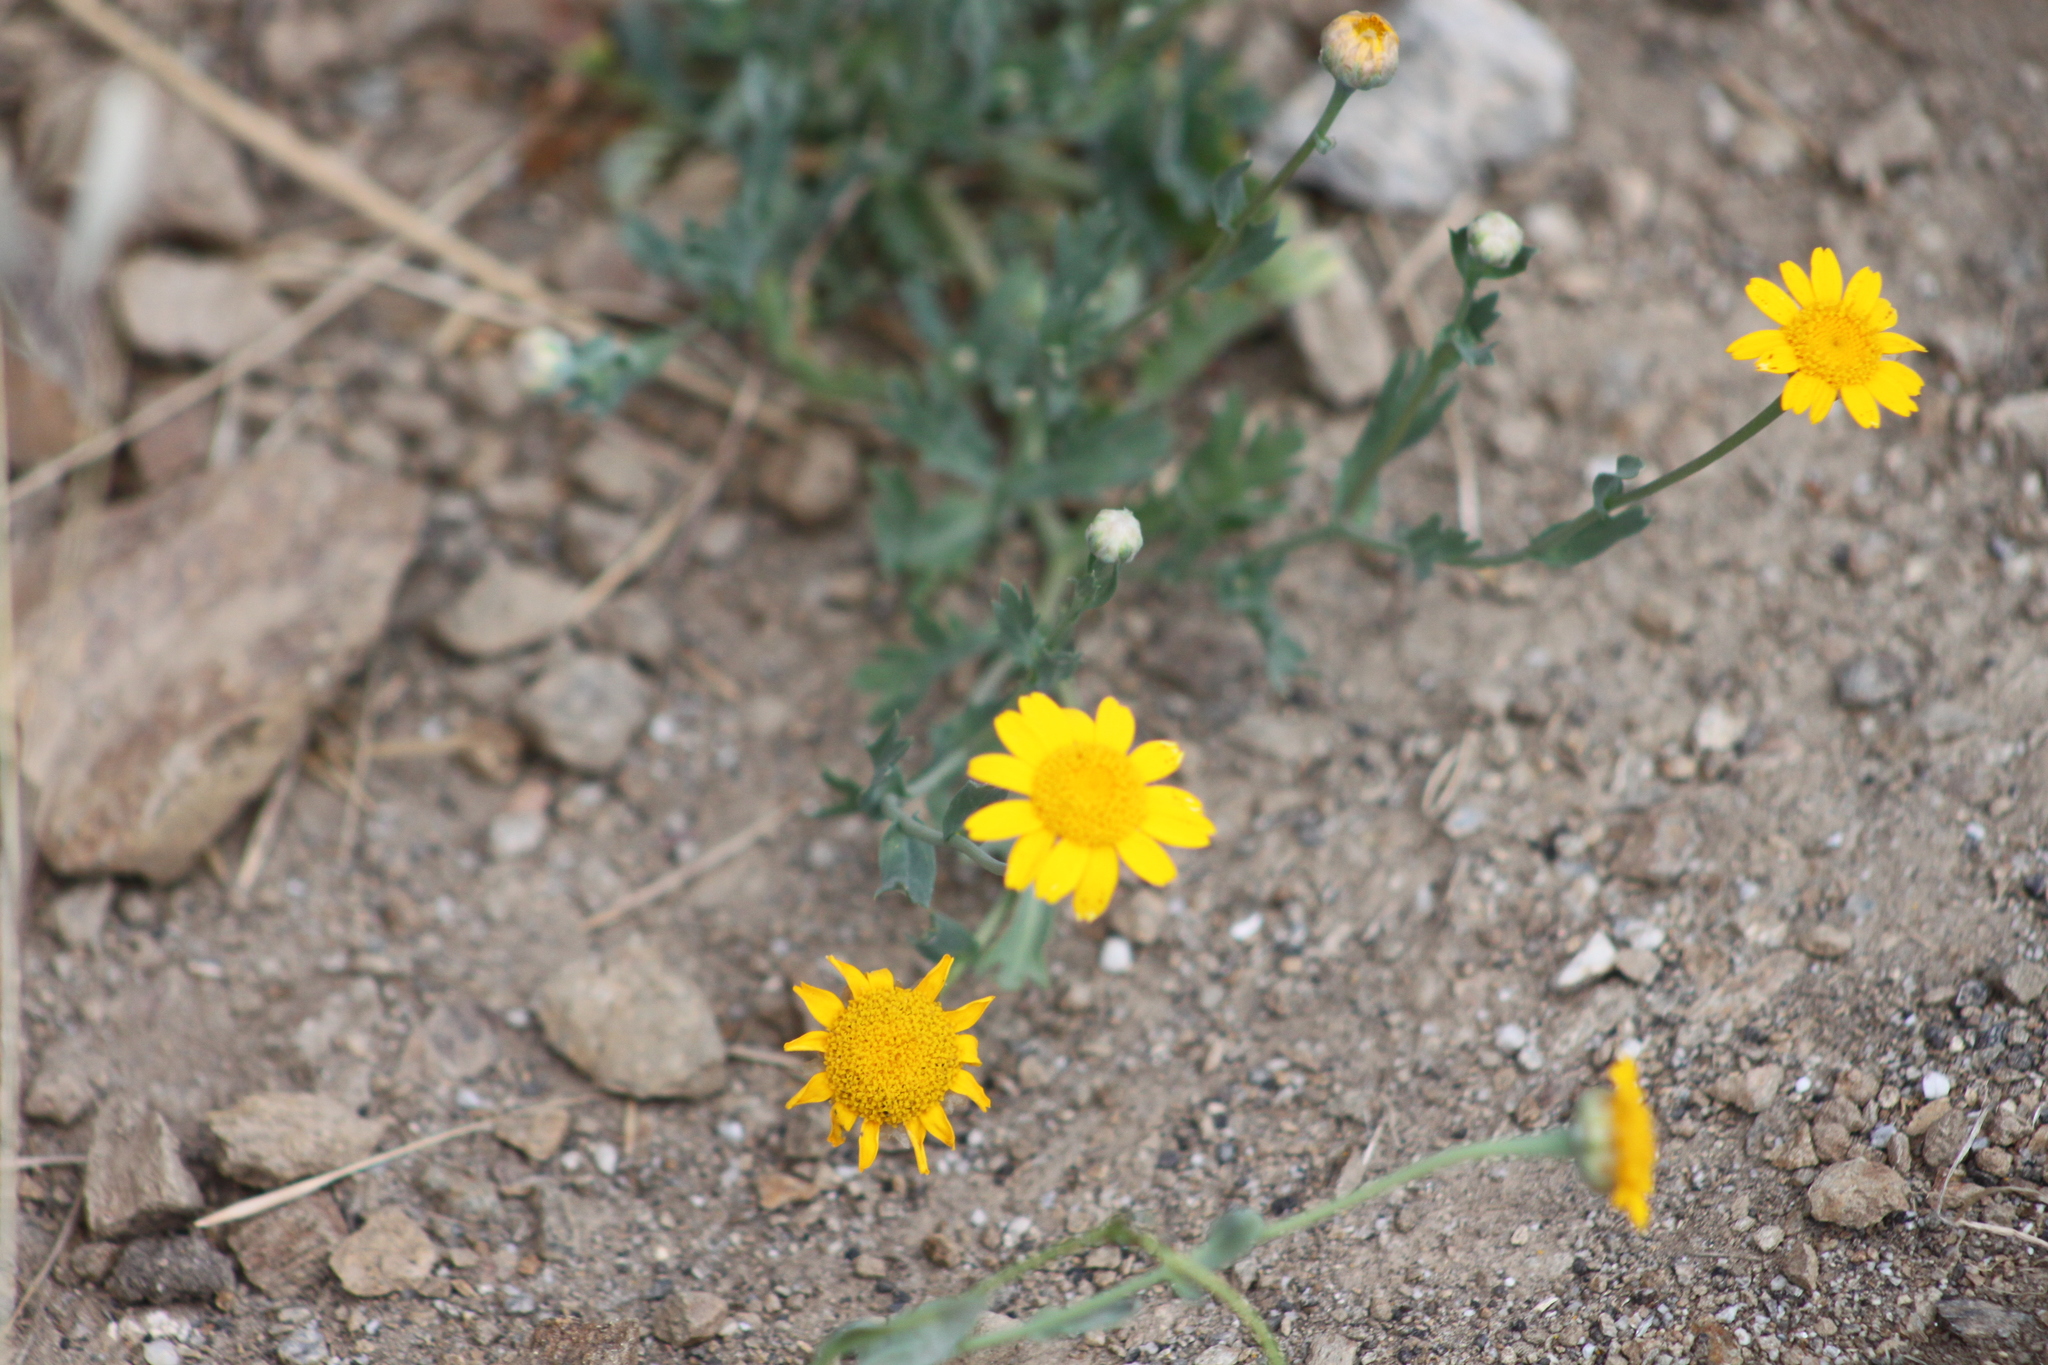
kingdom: Plantae
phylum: Tracheophyta
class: Magnoliopsida
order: Asterales
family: Asteraceae
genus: Glebionis
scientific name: Glebionis segetum
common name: Corndaisy
